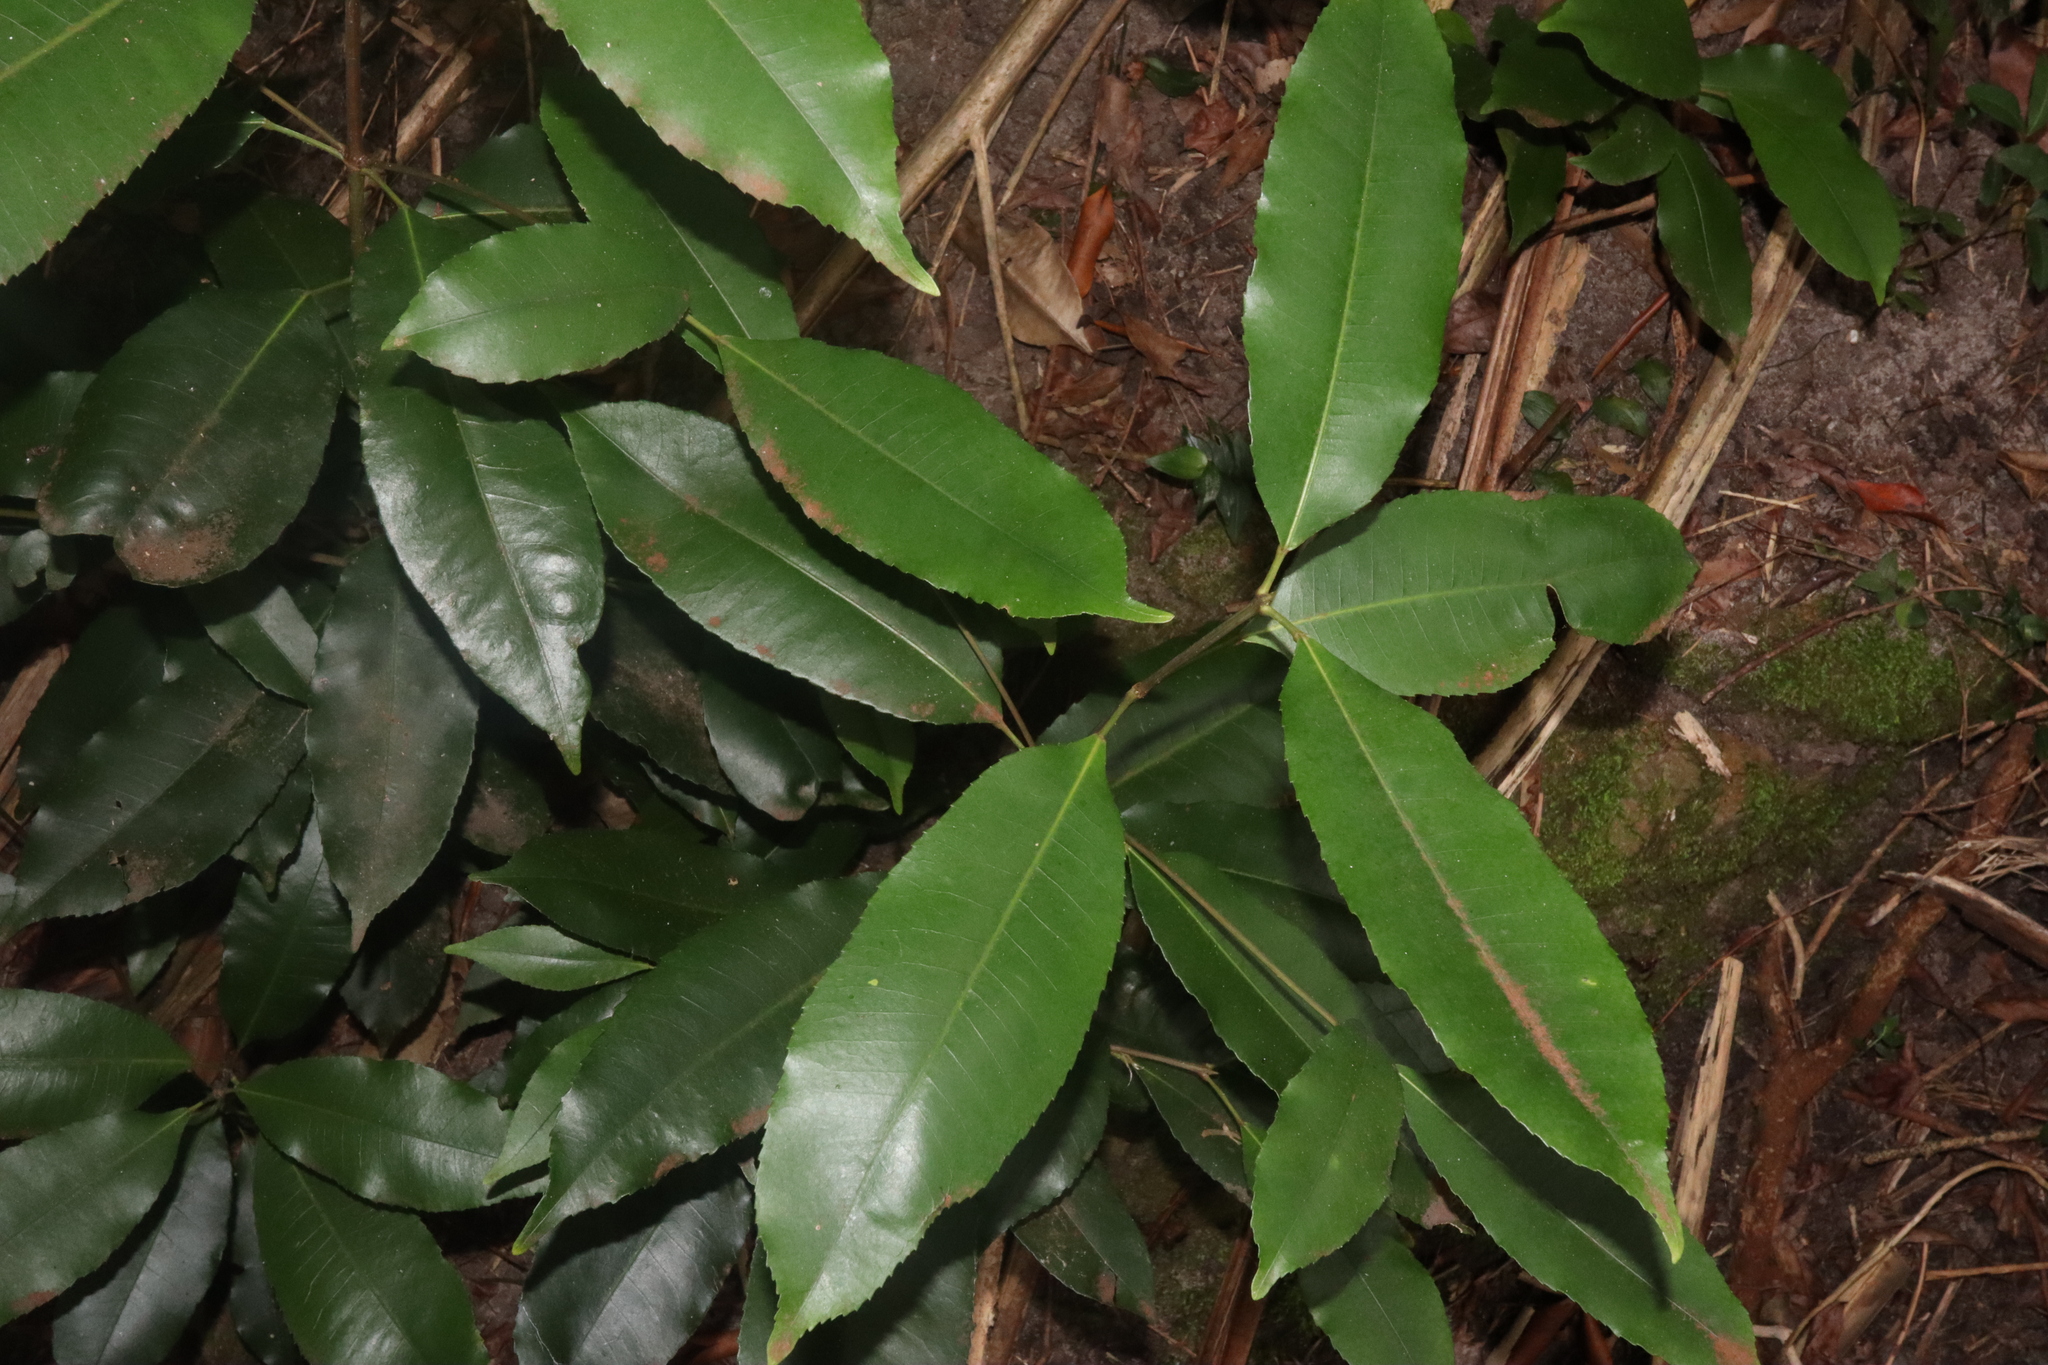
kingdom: Plantae
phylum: Tracheophyta
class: Magnoliopsida
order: Oxalidales
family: Cunoniaceae
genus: Ceratopetalum
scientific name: Ceratopetalum apetalum
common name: Scented satinwood
